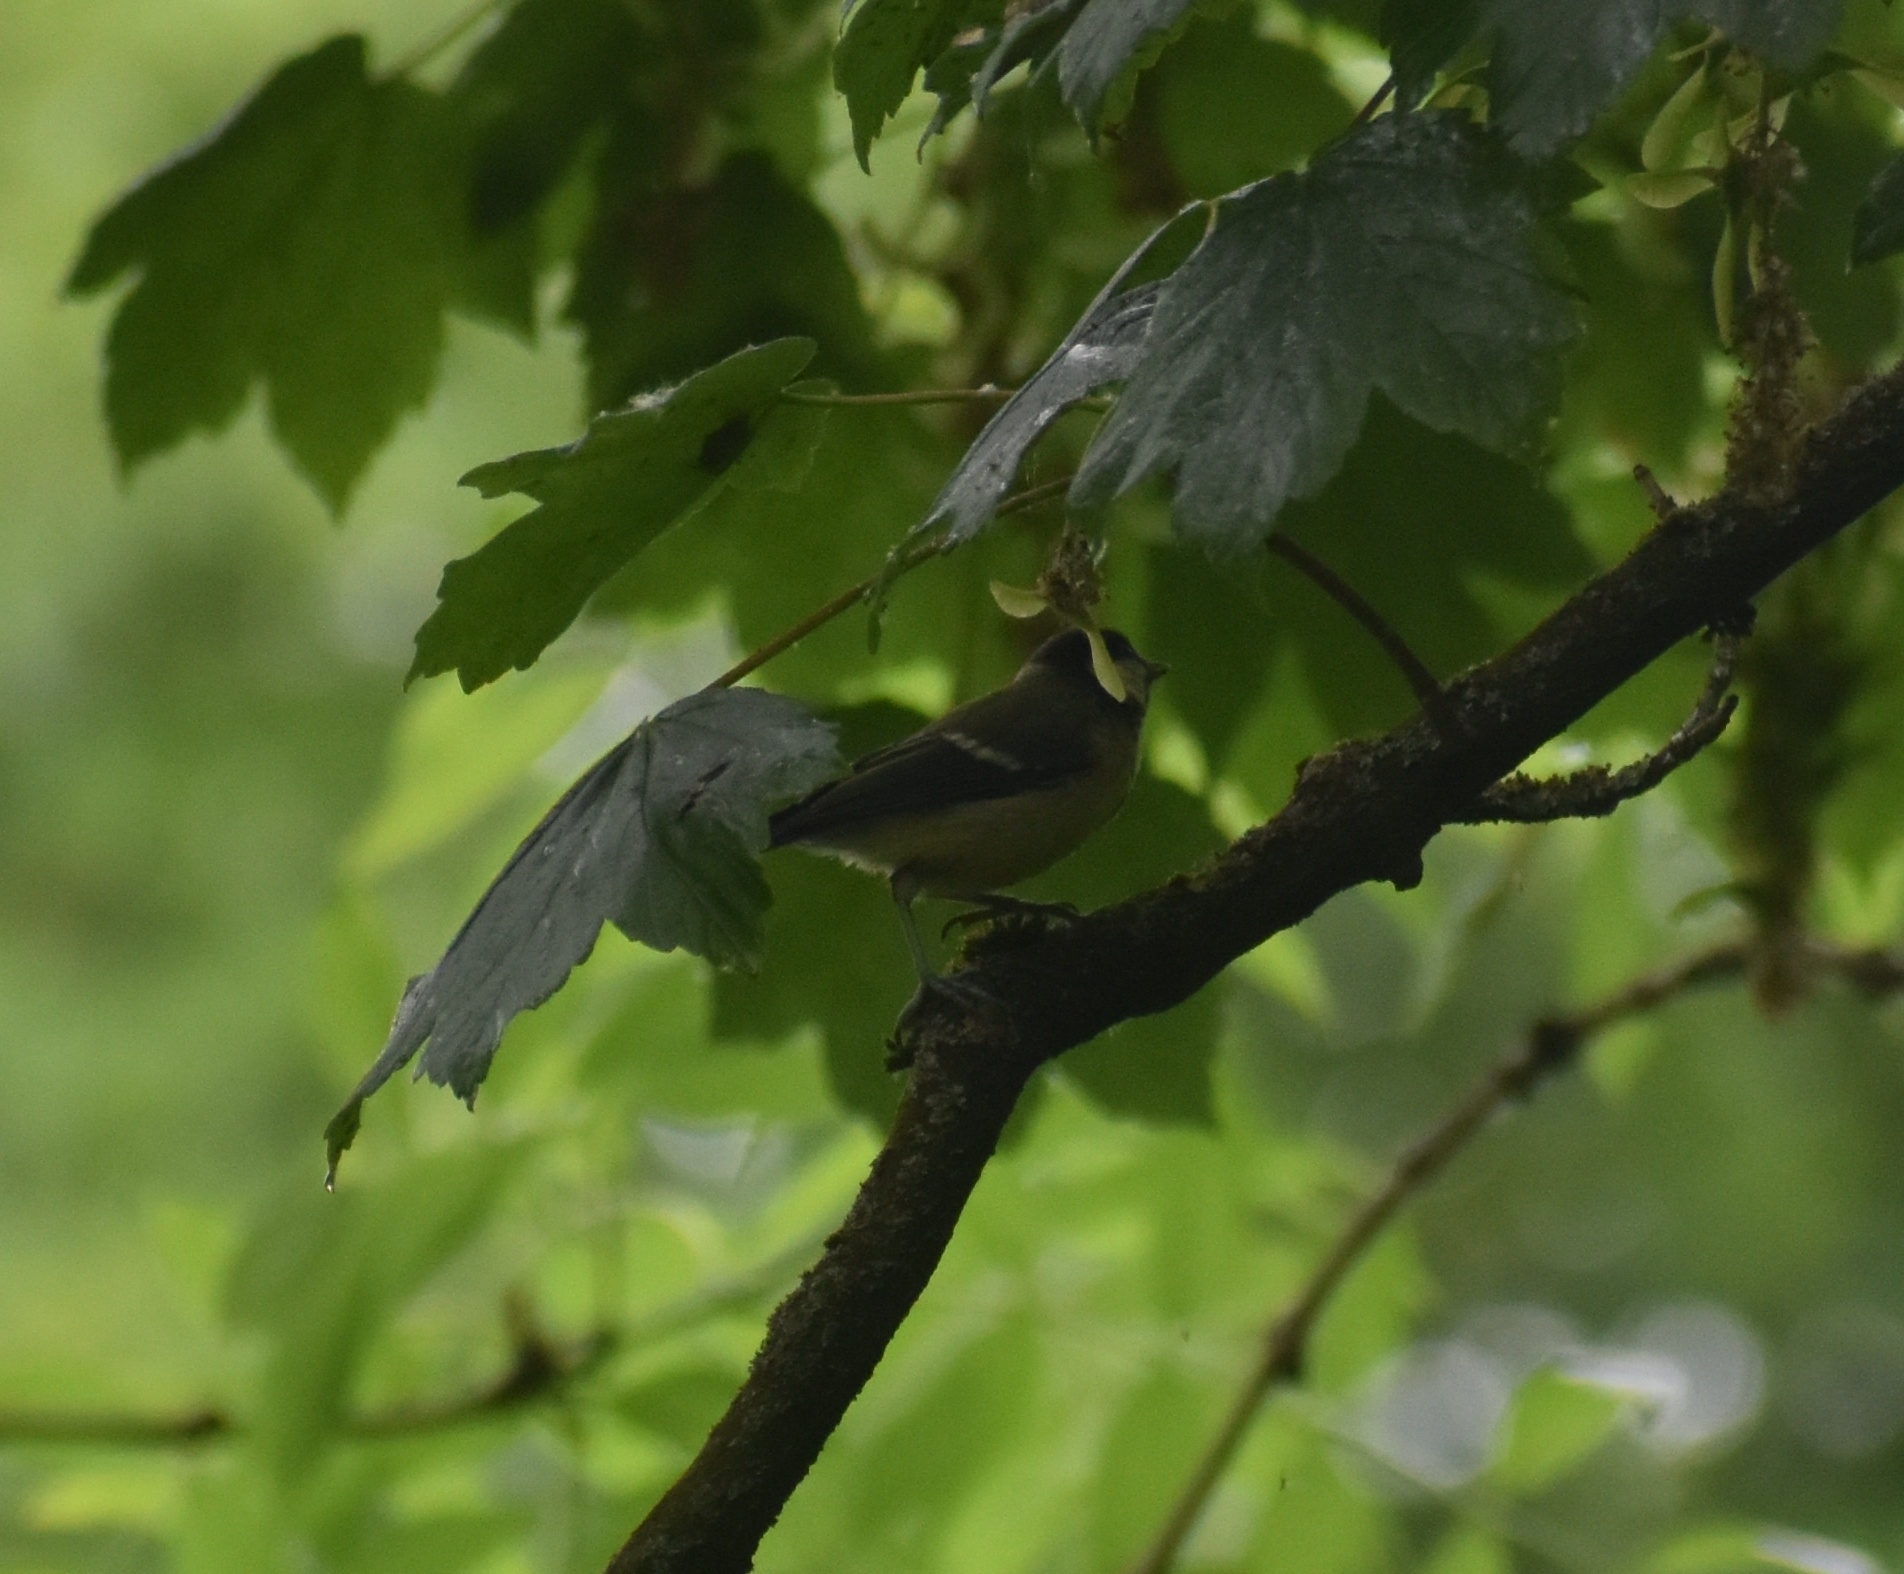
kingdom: Animalia
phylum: Chordata
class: Aves
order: Passeriformes
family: Paridae
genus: Cyanistes
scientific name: Cyanistes caeruleus
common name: Eurasian blue tit
